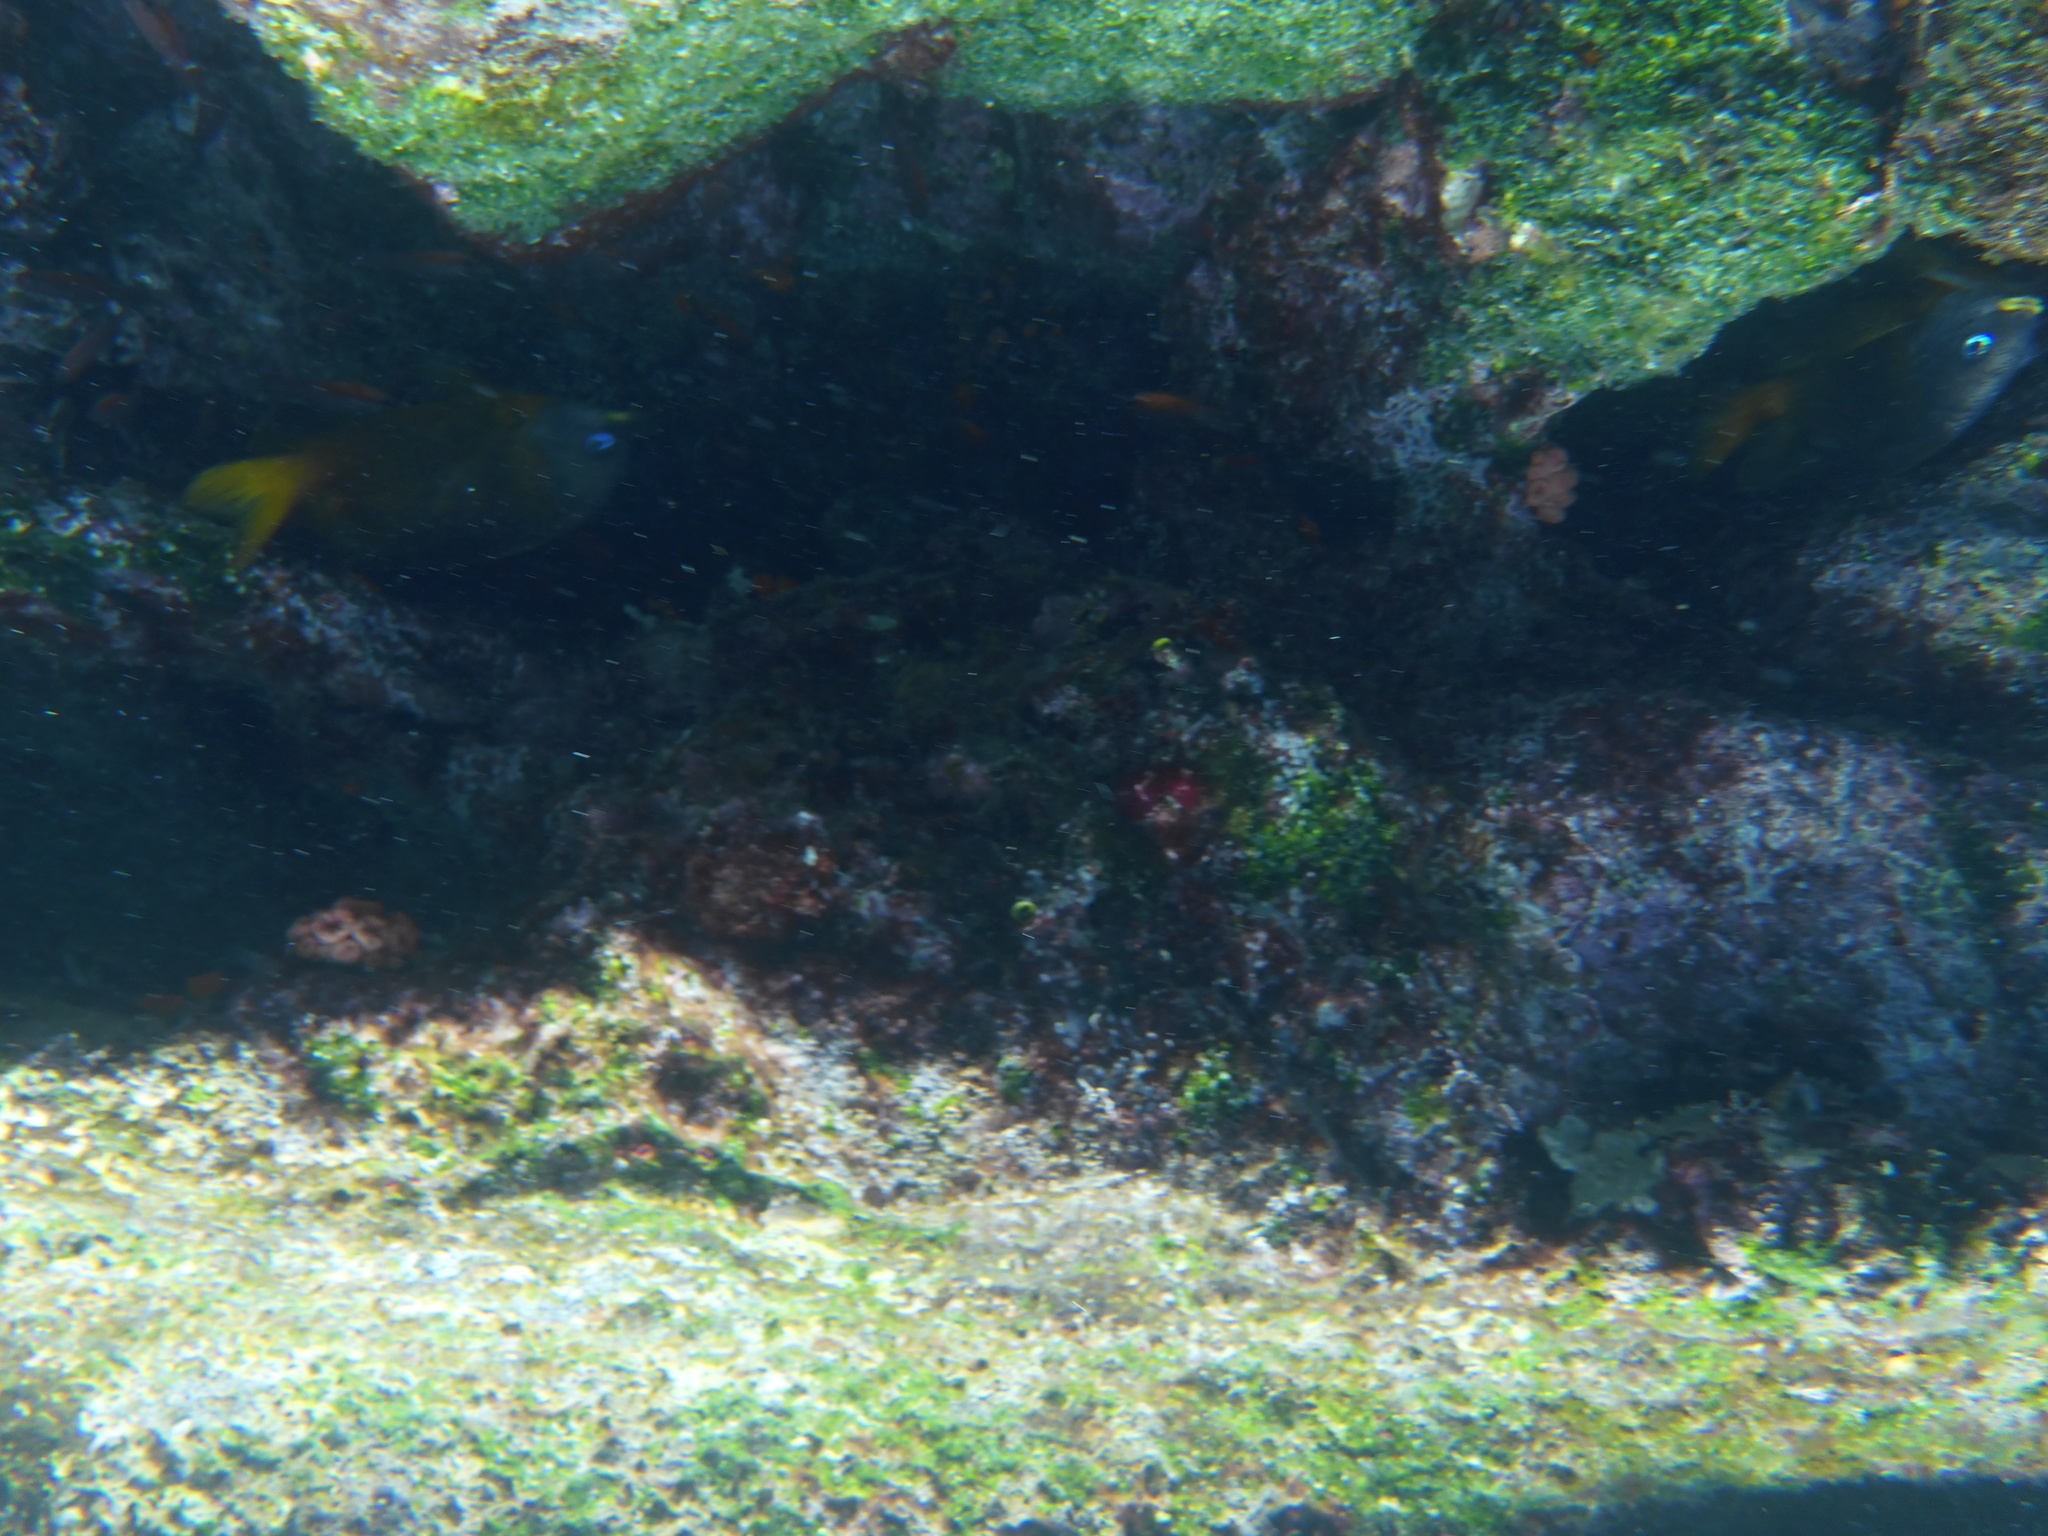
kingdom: Animalia
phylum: Chordata
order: Perciformes
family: Pomacentridae
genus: Stegastes
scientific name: Stegastes arcifrons
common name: Galapagos gregory
